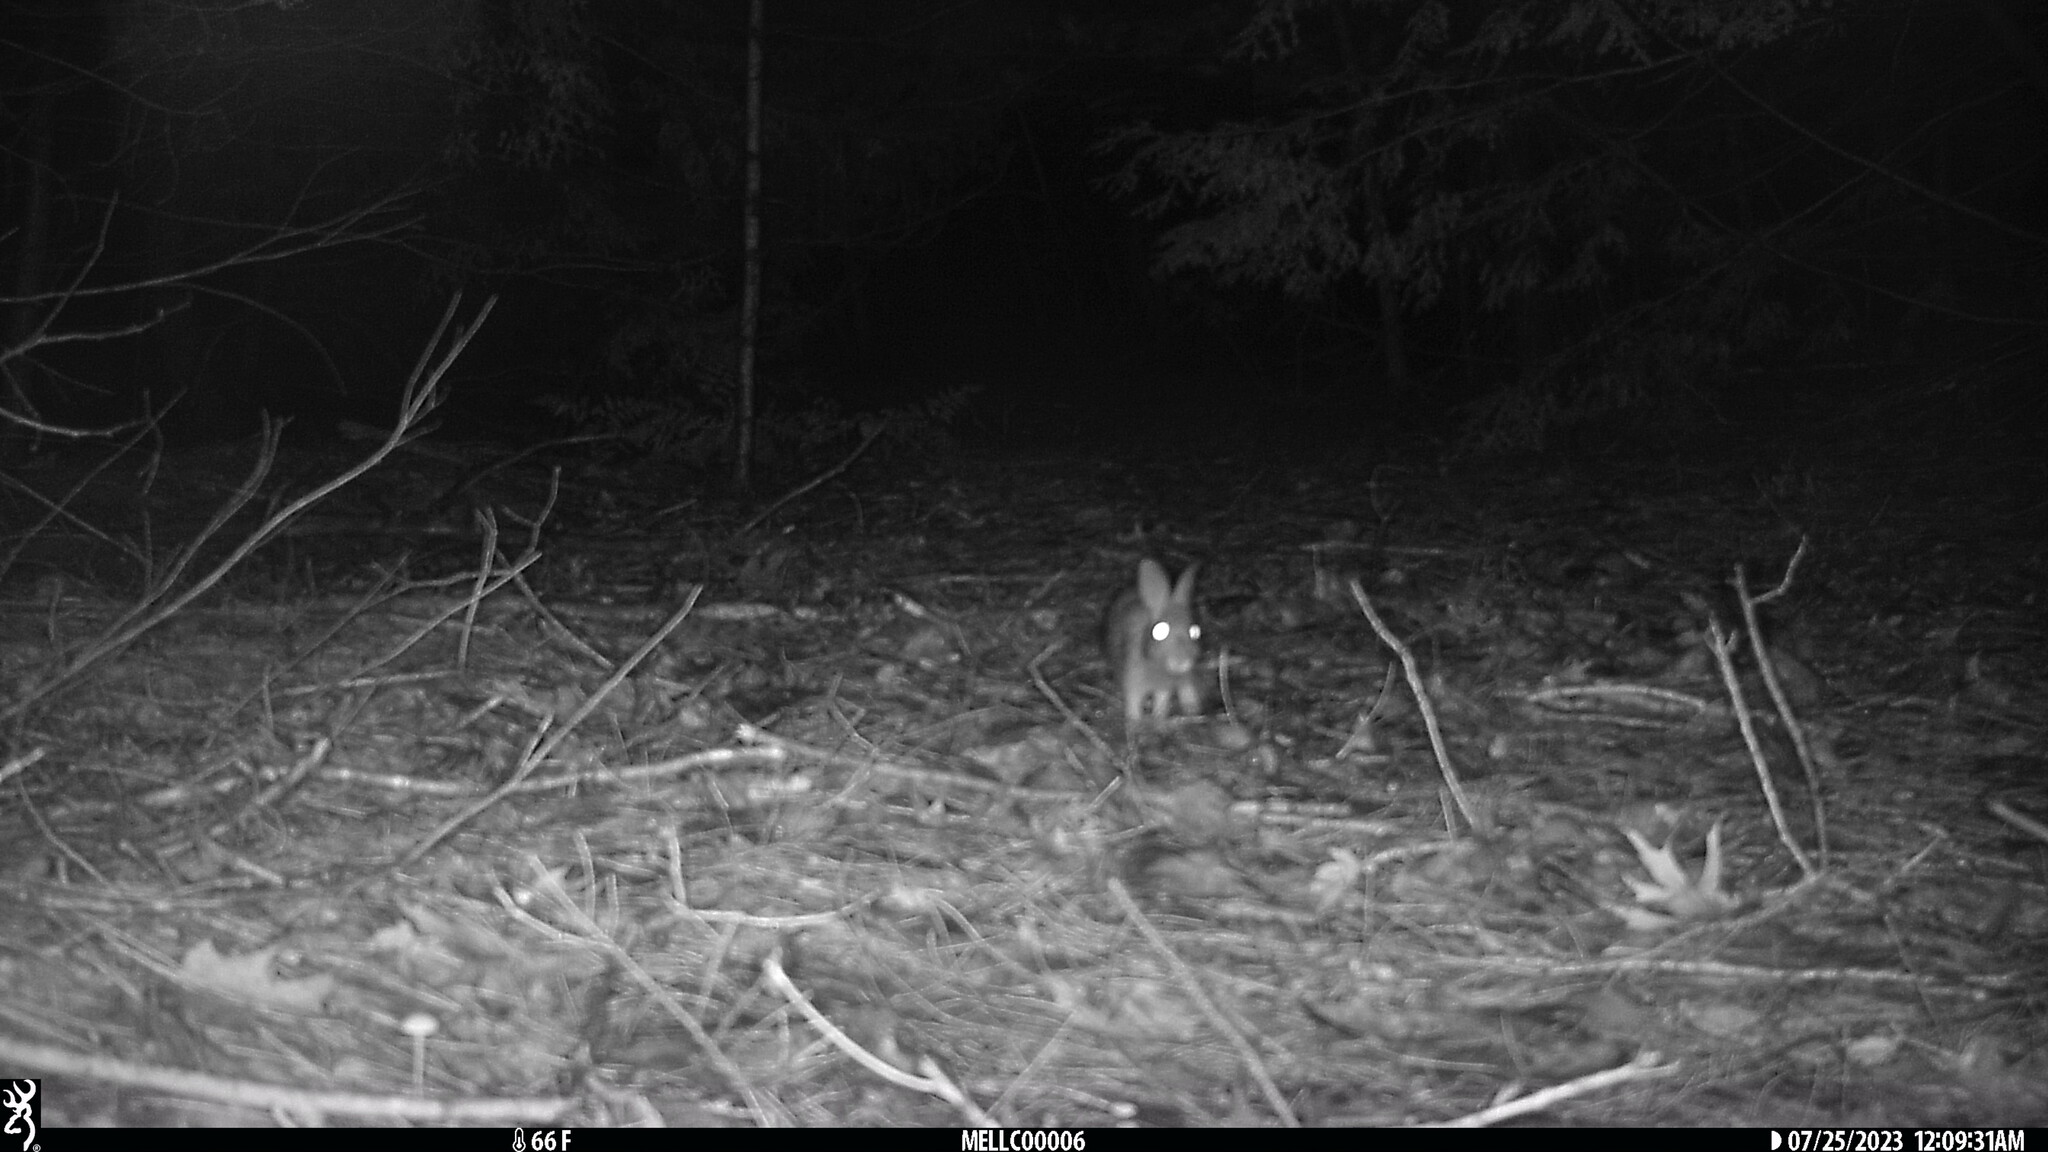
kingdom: Animalia
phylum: Chordata
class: Mammalia
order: Lagomorpha
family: Leporidae
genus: Sylvilagus
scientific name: Sylvilagus floridanus
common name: Eastern cottontail
